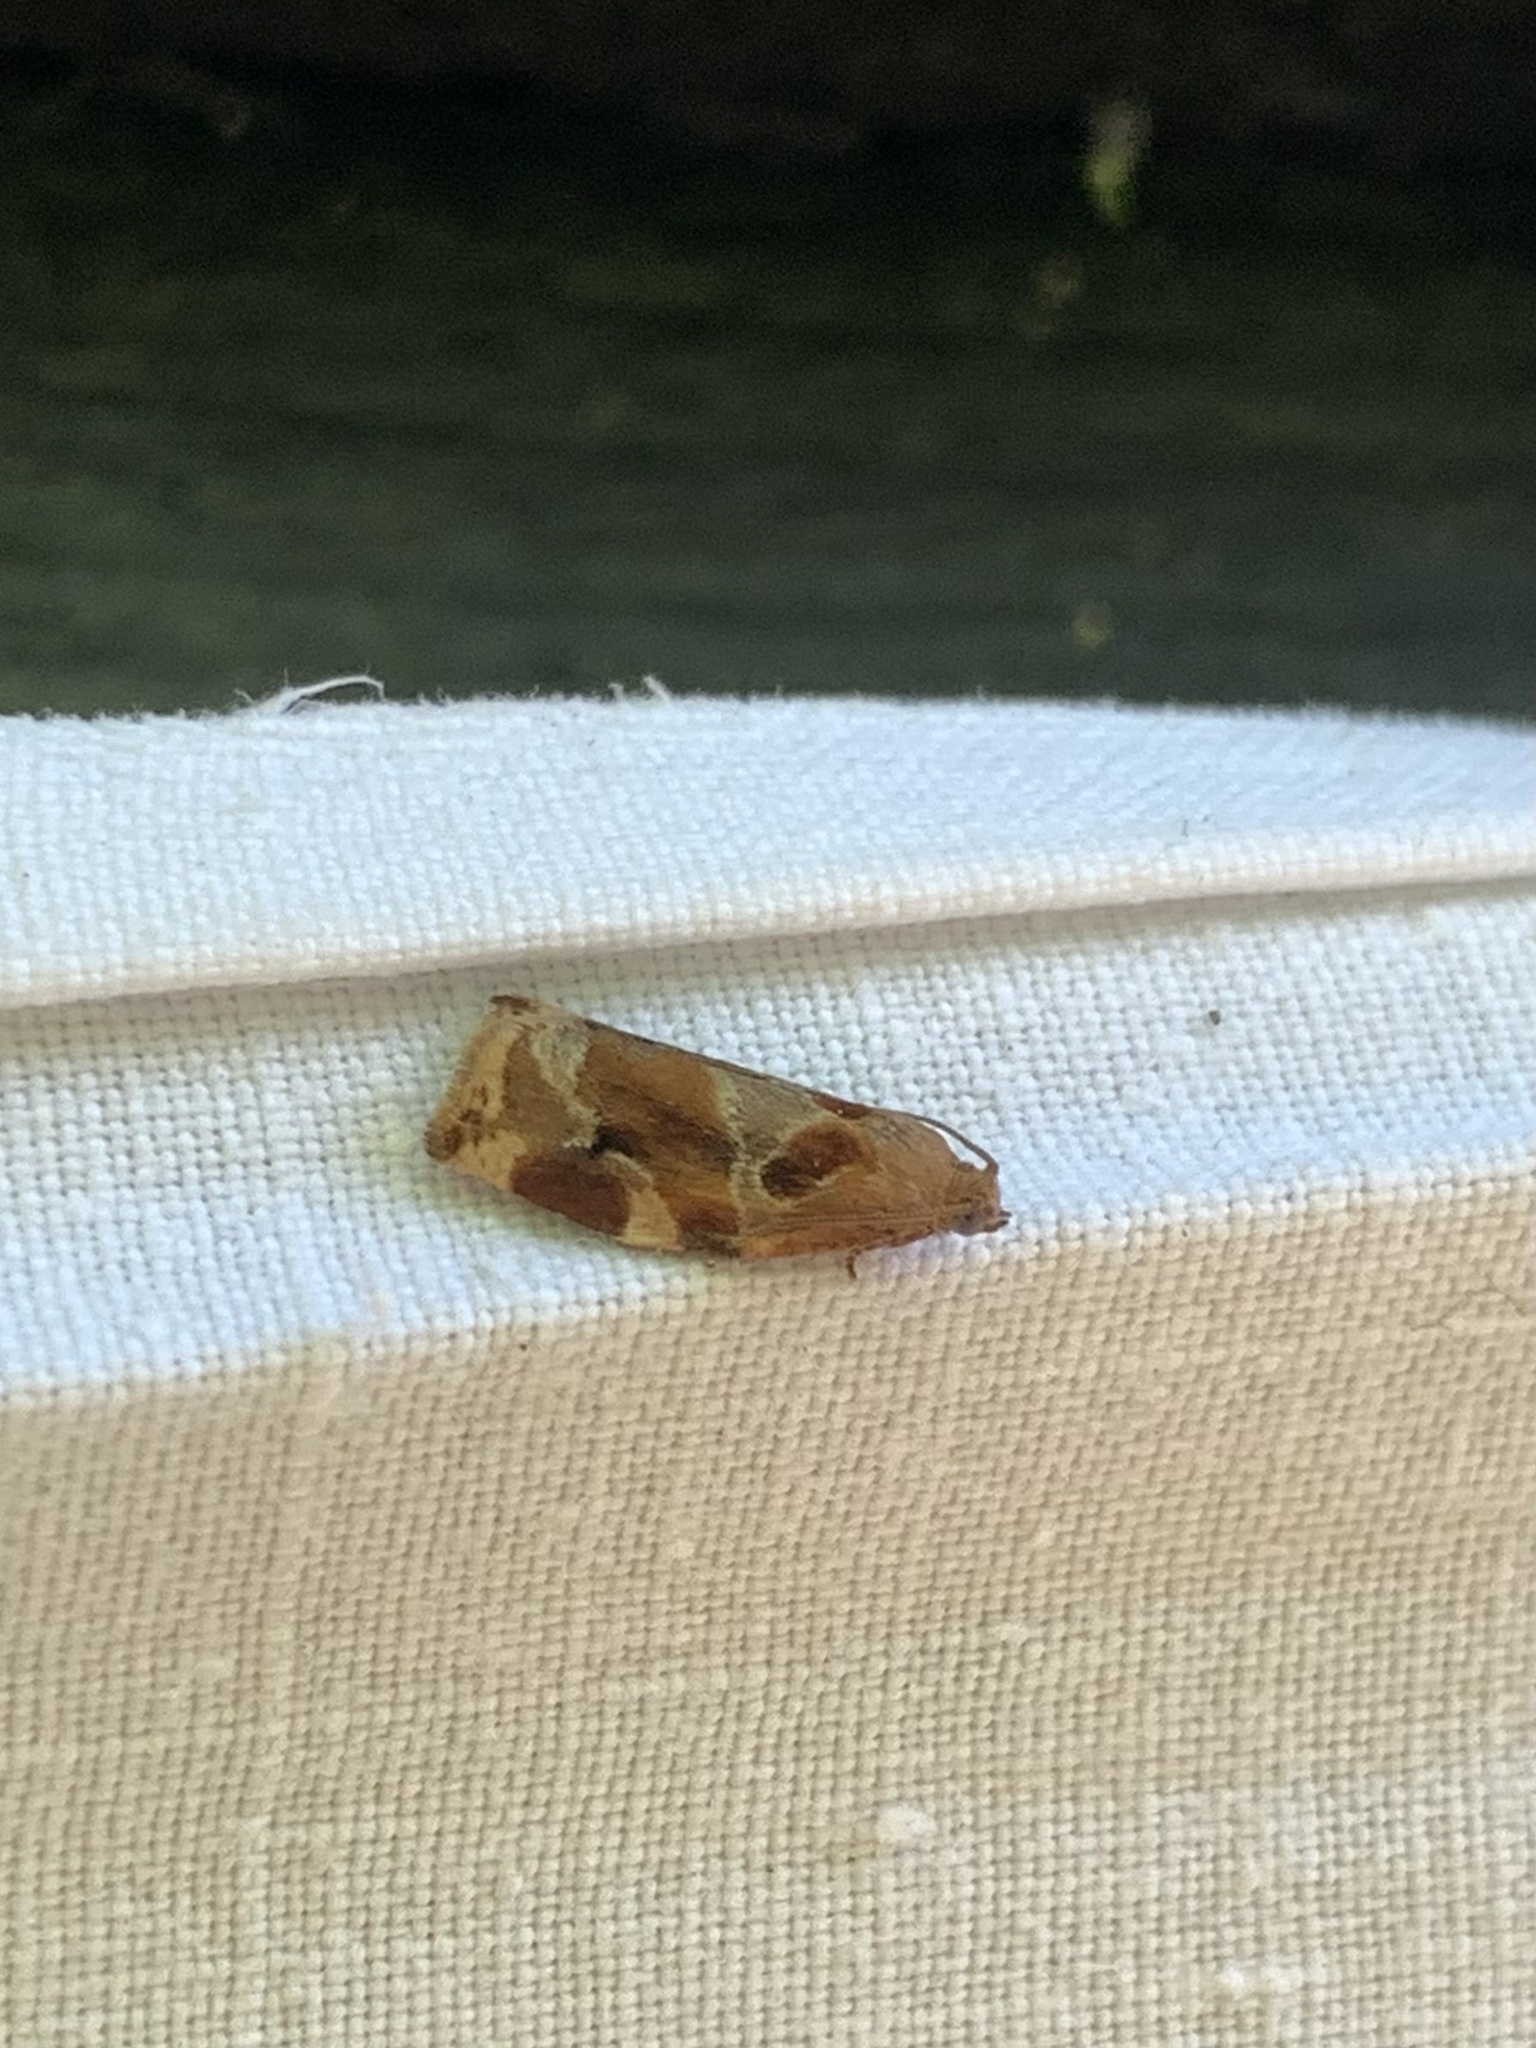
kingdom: Animalia
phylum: Arthropoda
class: Insecta
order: Lepidoptera
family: Tortricidae
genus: Archips
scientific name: Archips xylosteana
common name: Variegated golden tortrix
